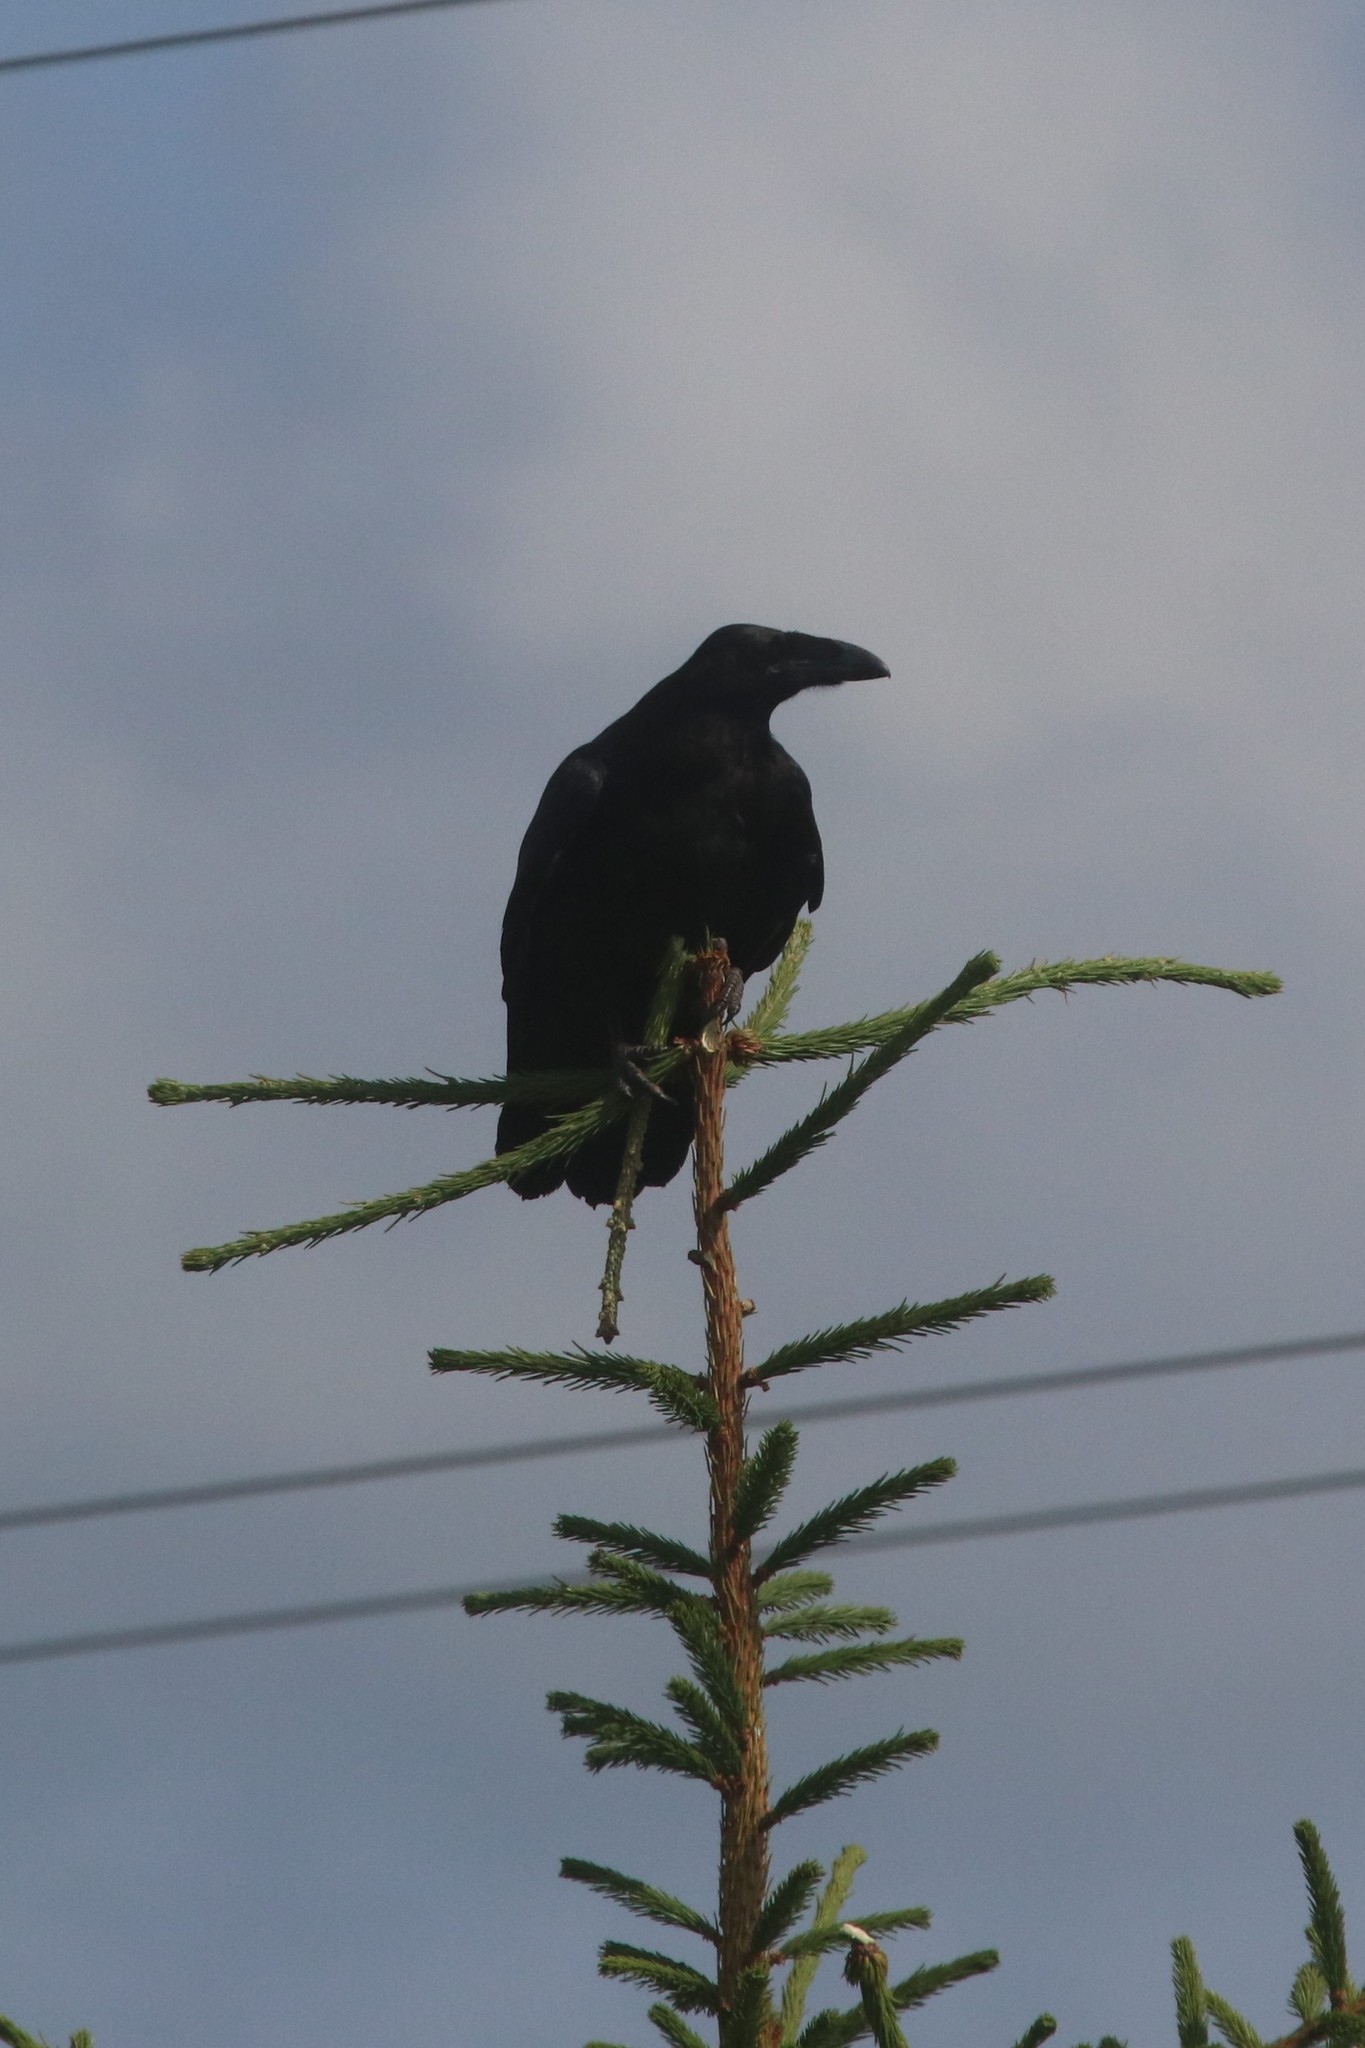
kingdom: Animalia
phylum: Chordata
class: Aves
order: Passeriformes
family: Corvidae
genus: Corvus
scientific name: Corvus corax
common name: Common raven
